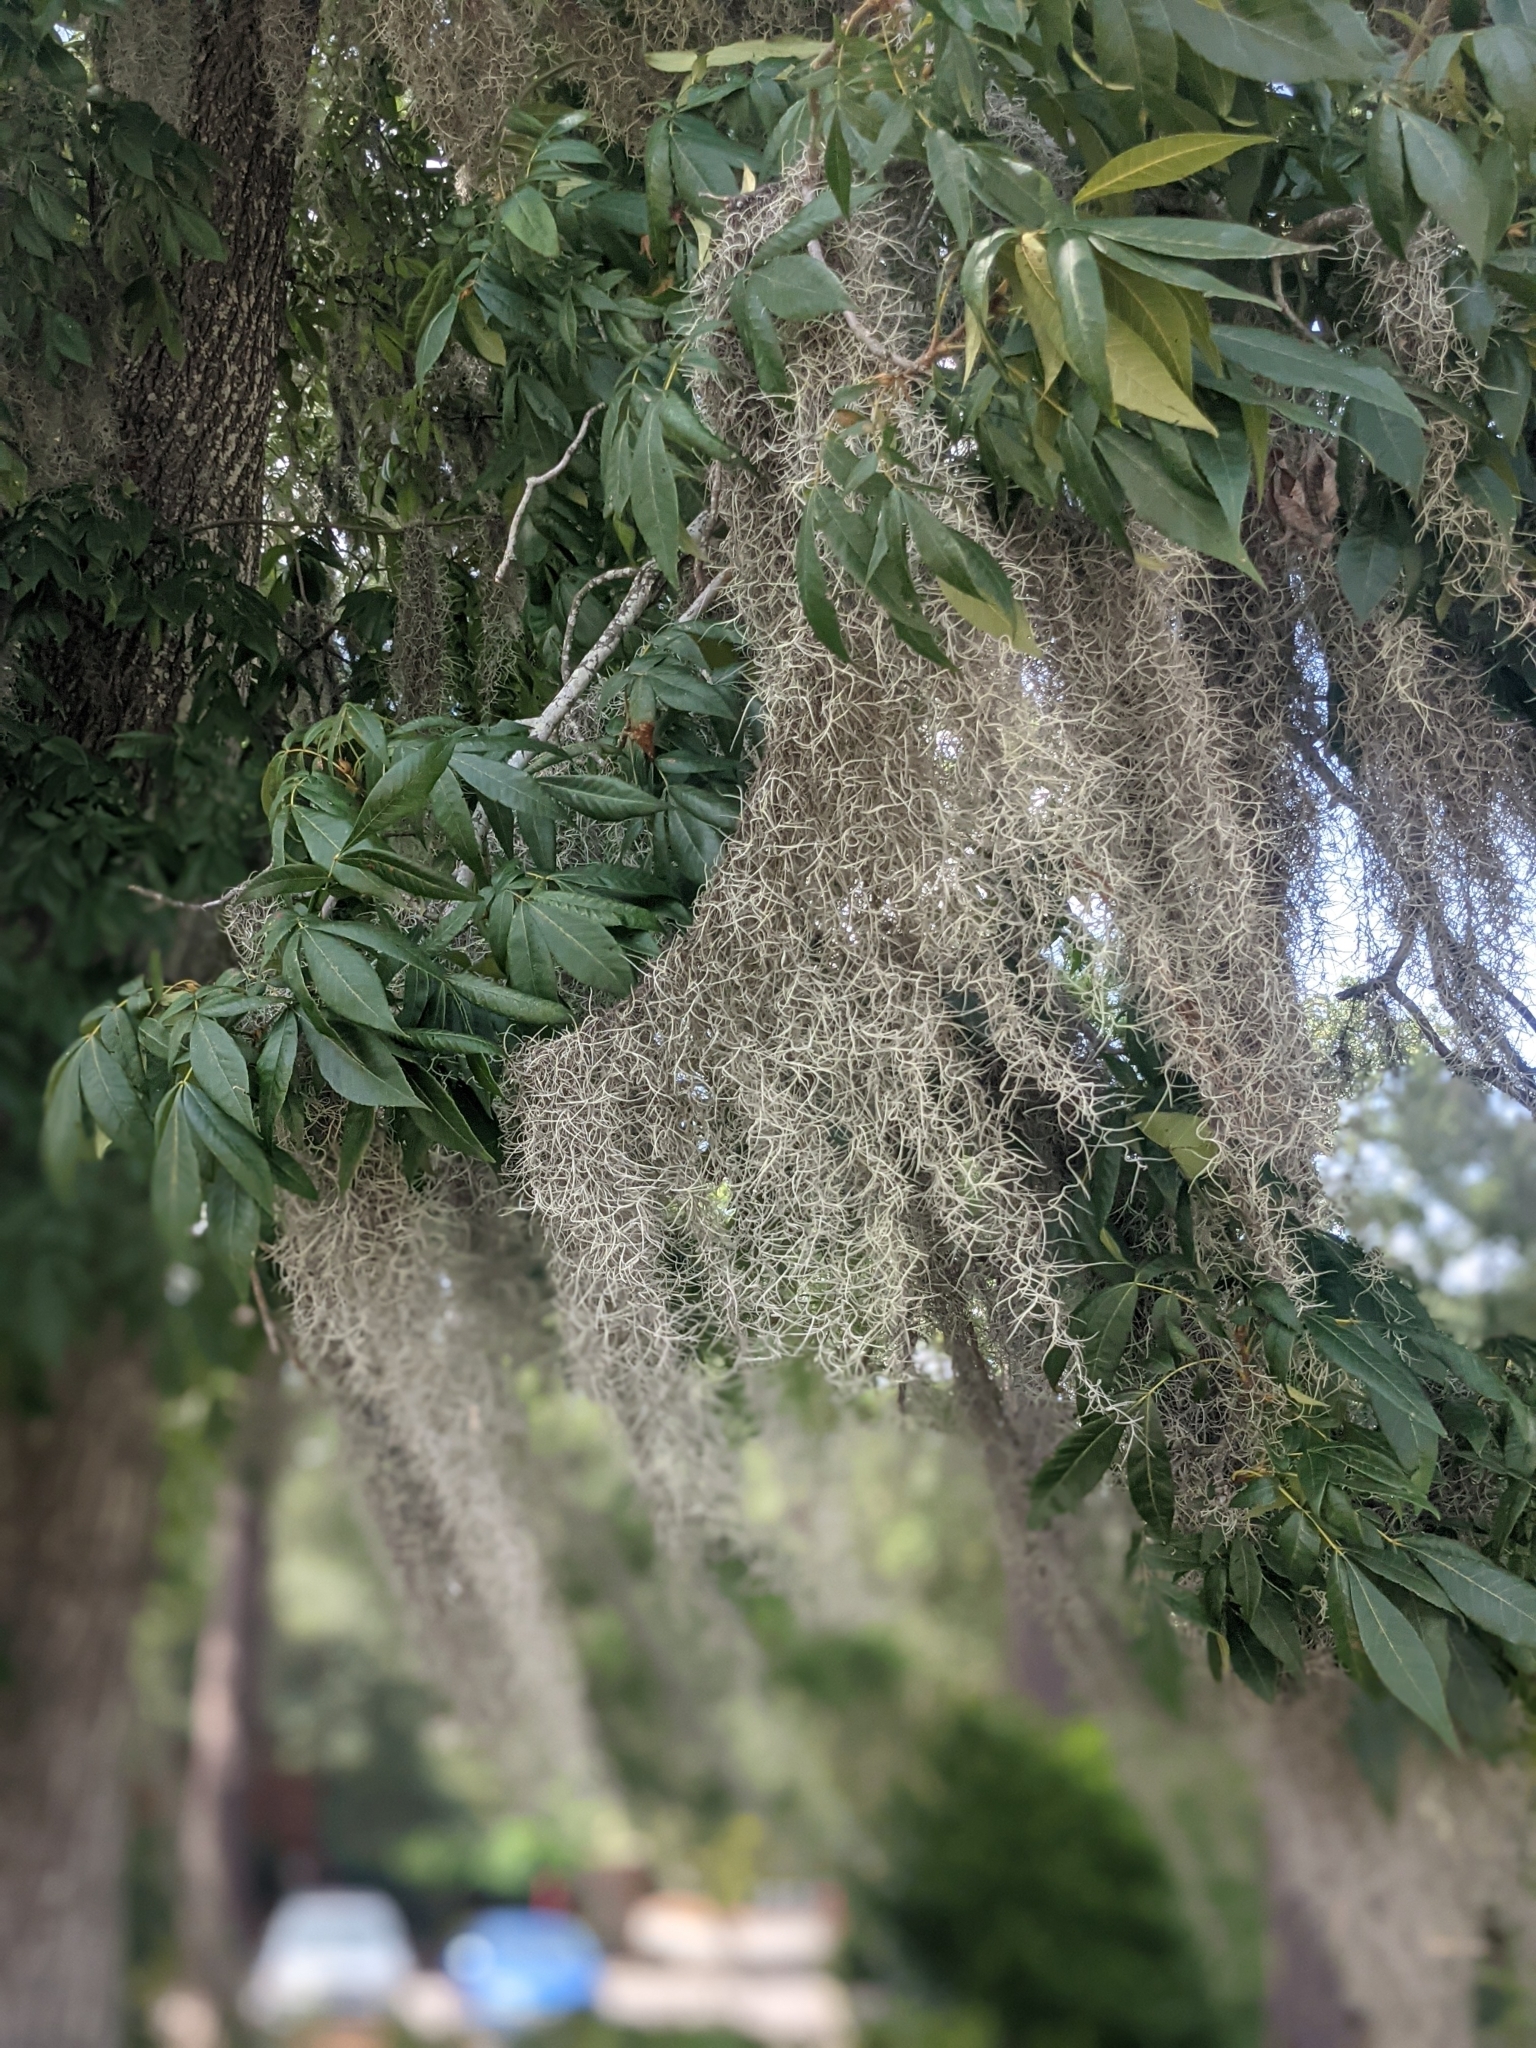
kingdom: Plantae
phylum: Tracheophyta
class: Liliopsida
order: Poales
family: Bromeliaceae
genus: Tillandsia
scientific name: Tillandsia usneoides
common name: Spanish moss
